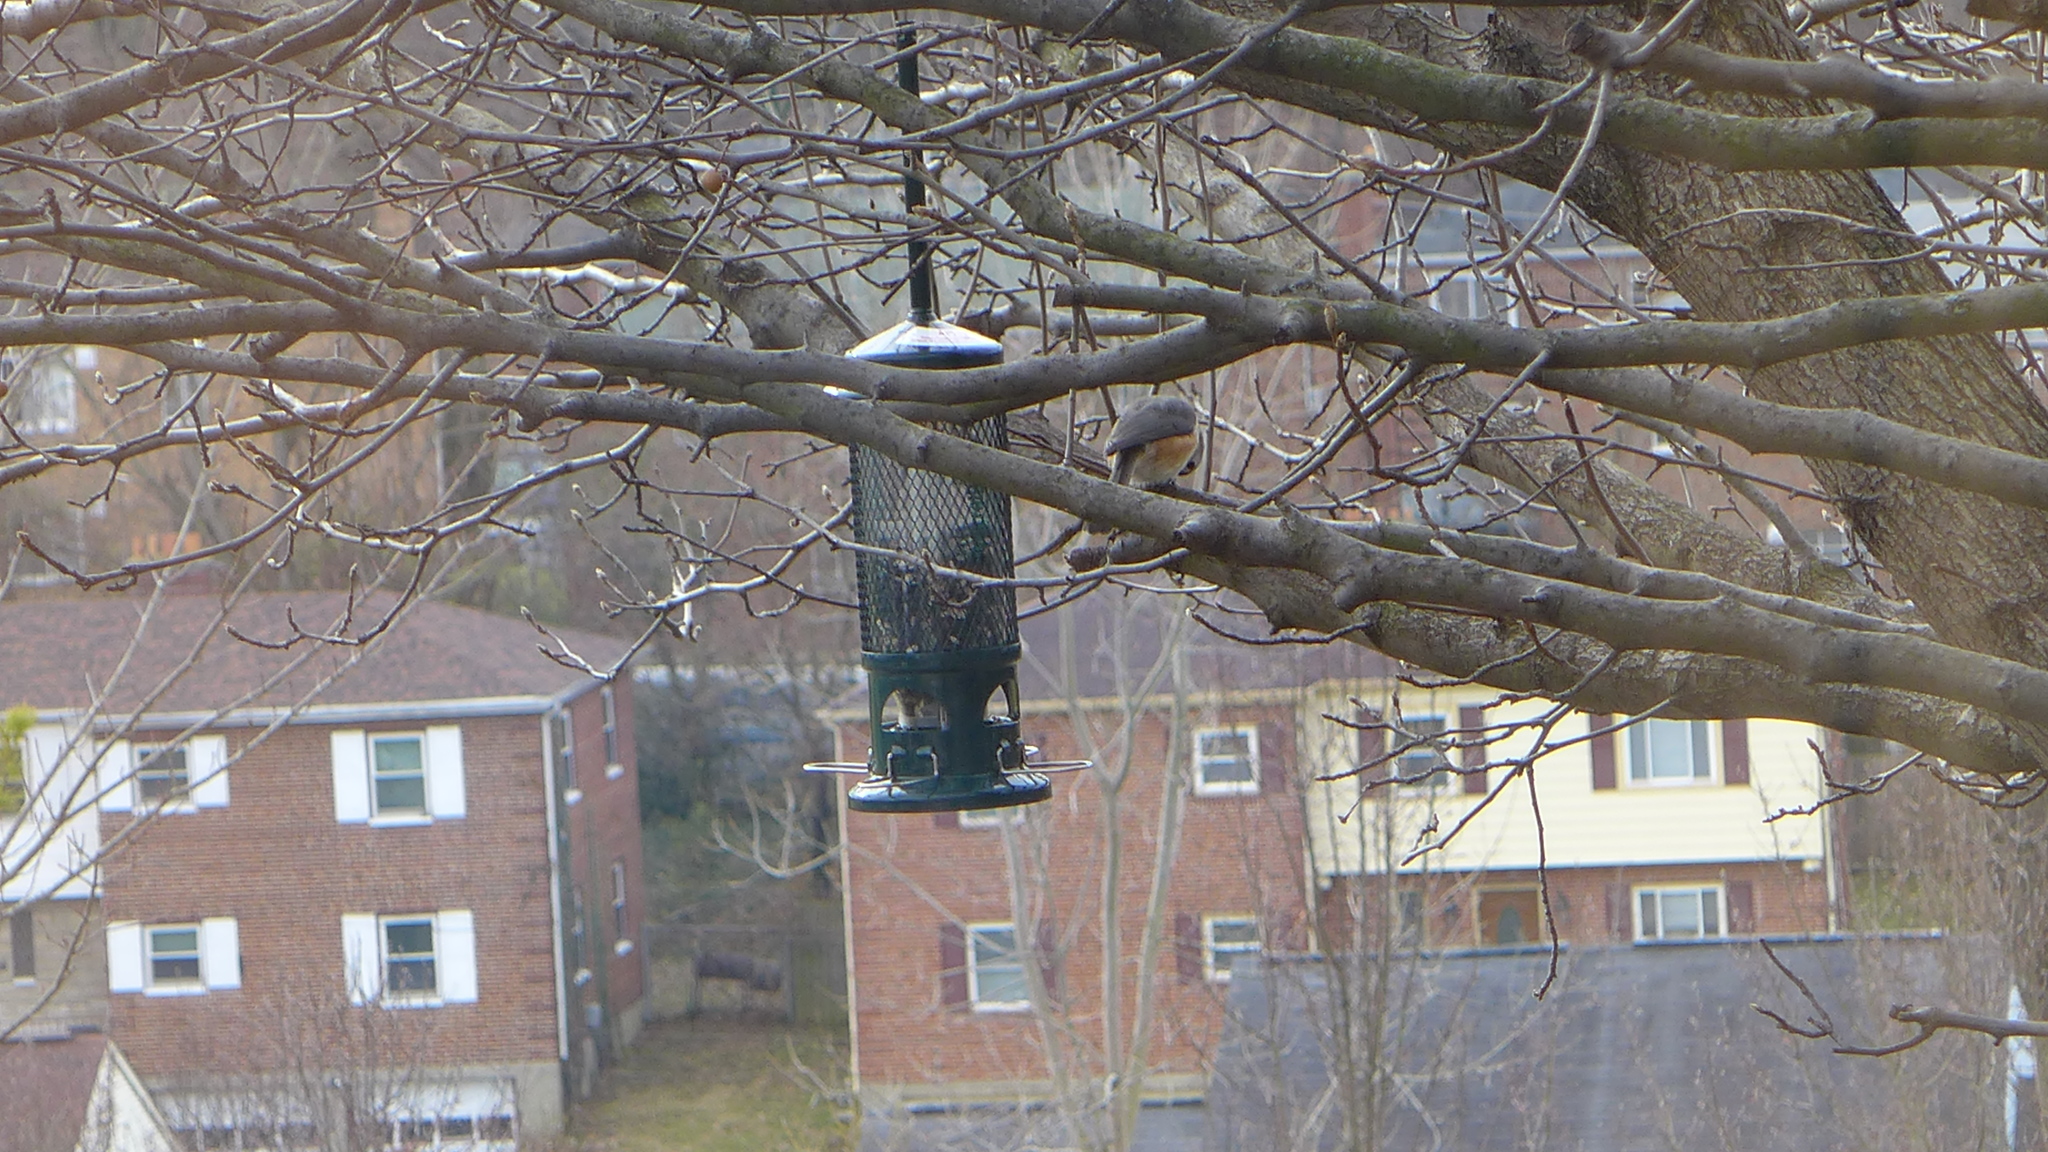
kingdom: Animalia
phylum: Chordata
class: Aves
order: Passeriformes
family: Paridae
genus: Baeolophus
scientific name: Baeolophus bicolor
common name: Tufted titmouse
